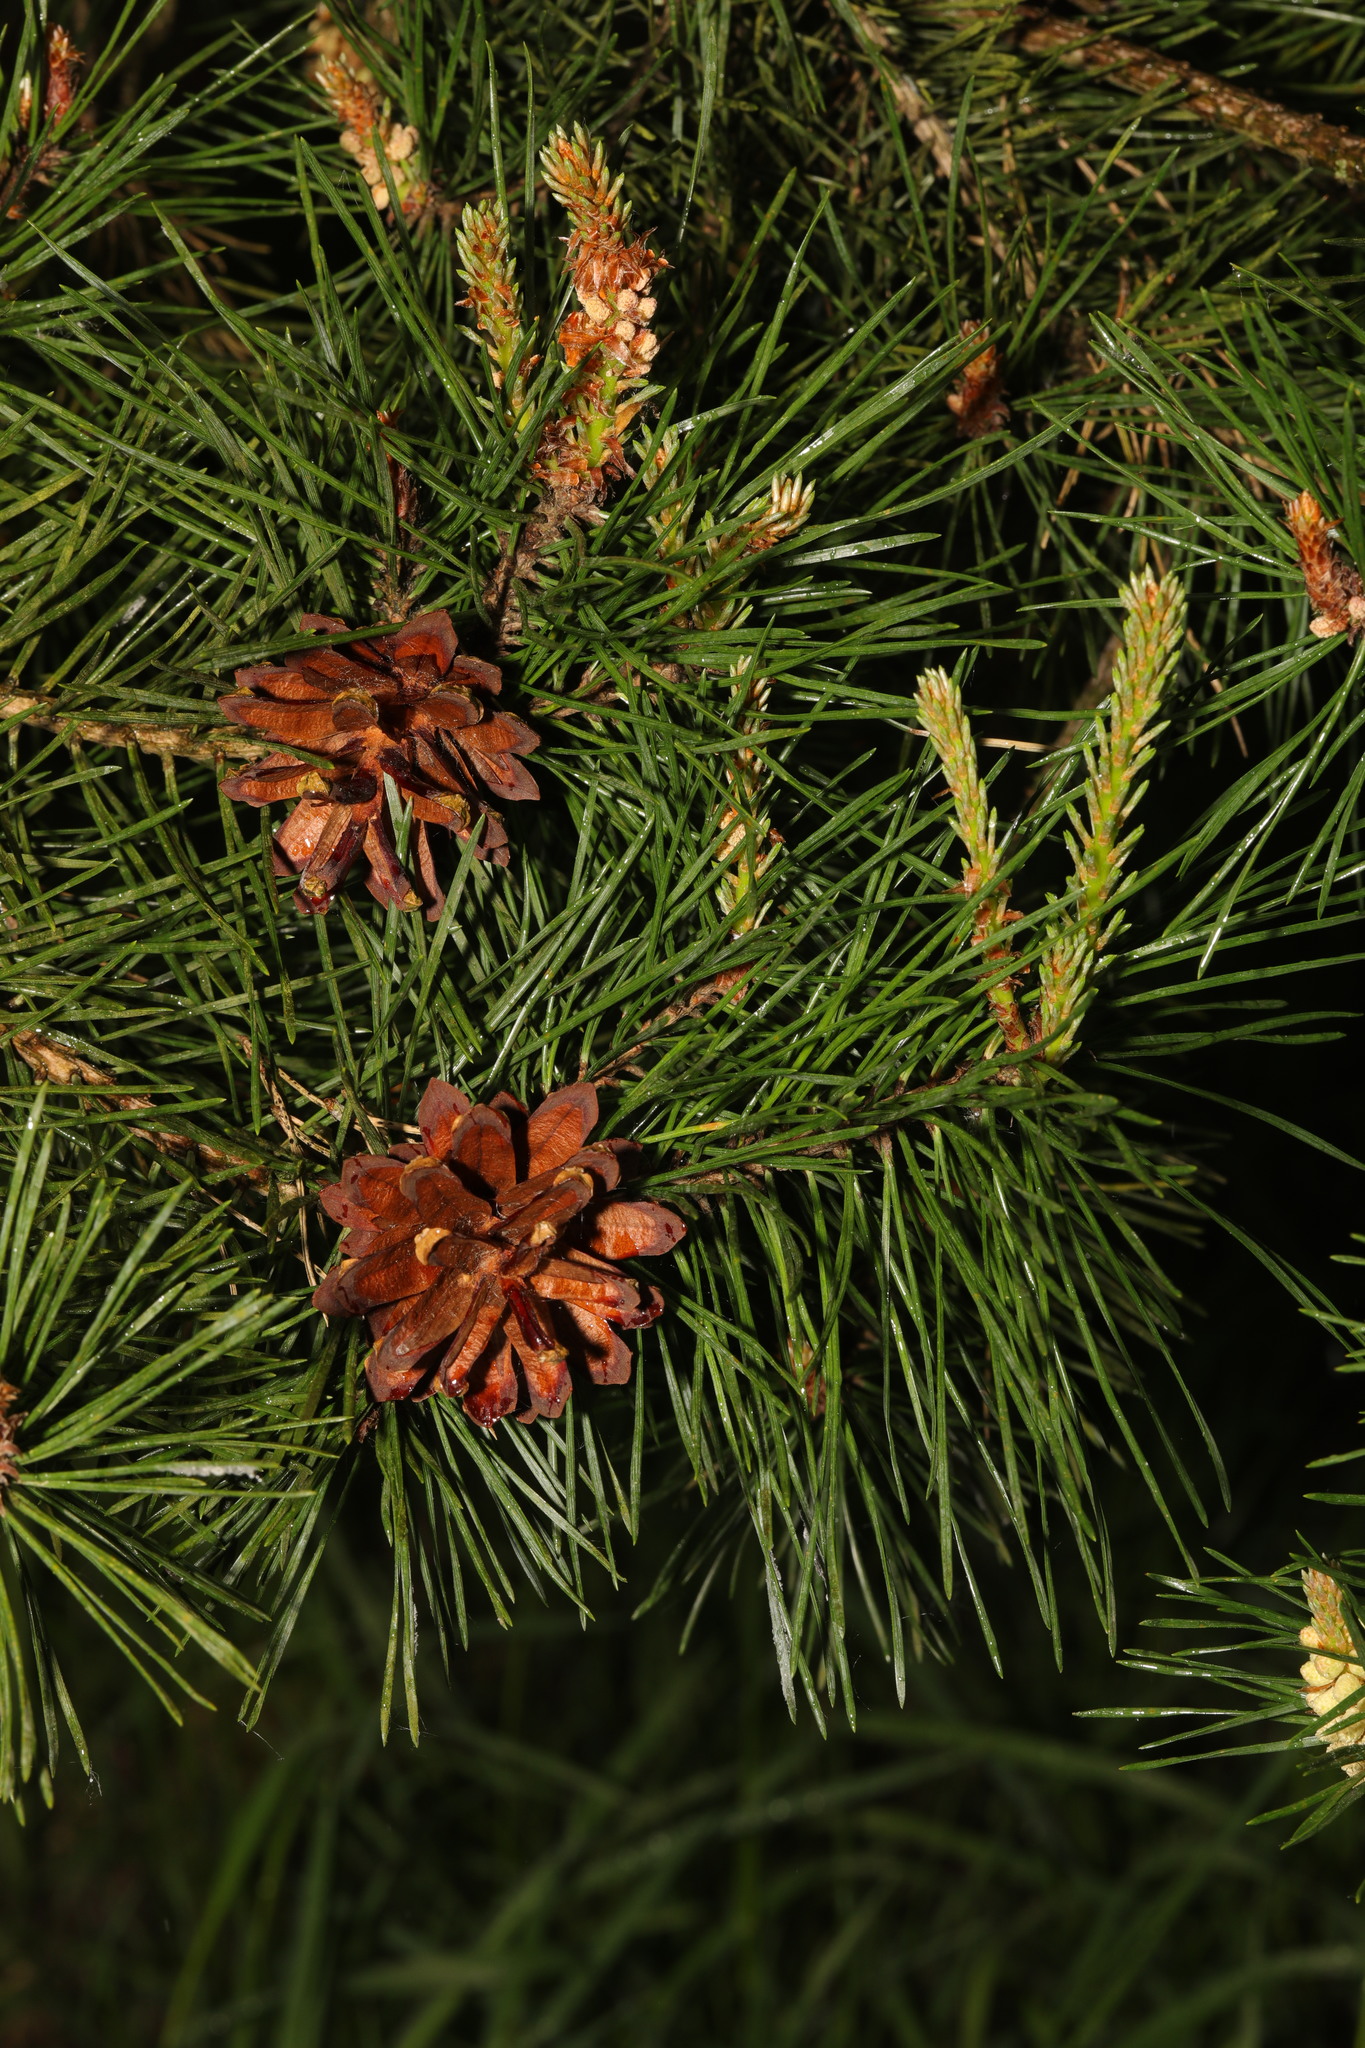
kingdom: Plantae
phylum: Tracheophyta
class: Pinopsida
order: Pinales
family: Pinaceae
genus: Pinus
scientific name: Pinus sylvestris
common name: Scots pine
